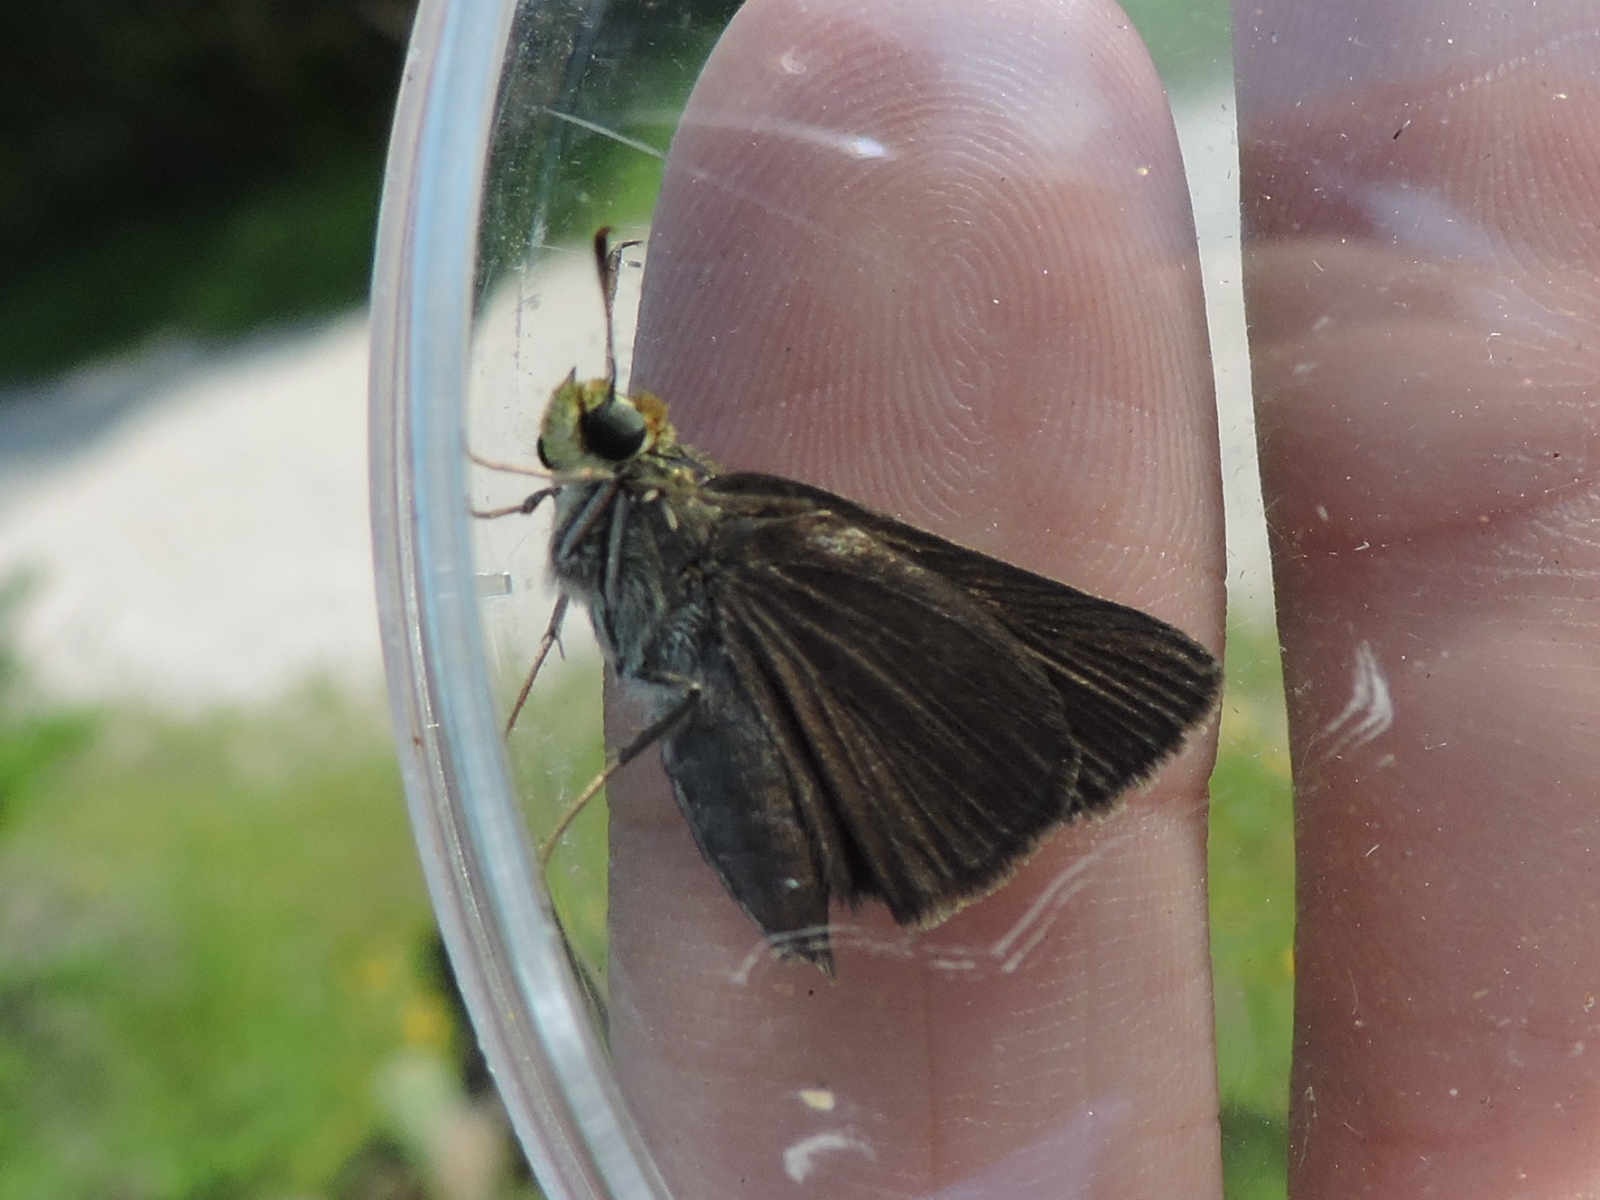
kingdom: Animalia
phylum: Arthropoda
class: Insecta
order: Lepidoptera
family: Hesperiidae
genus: Euphyes
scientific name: Euphyes vestris
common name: Dun skipper
